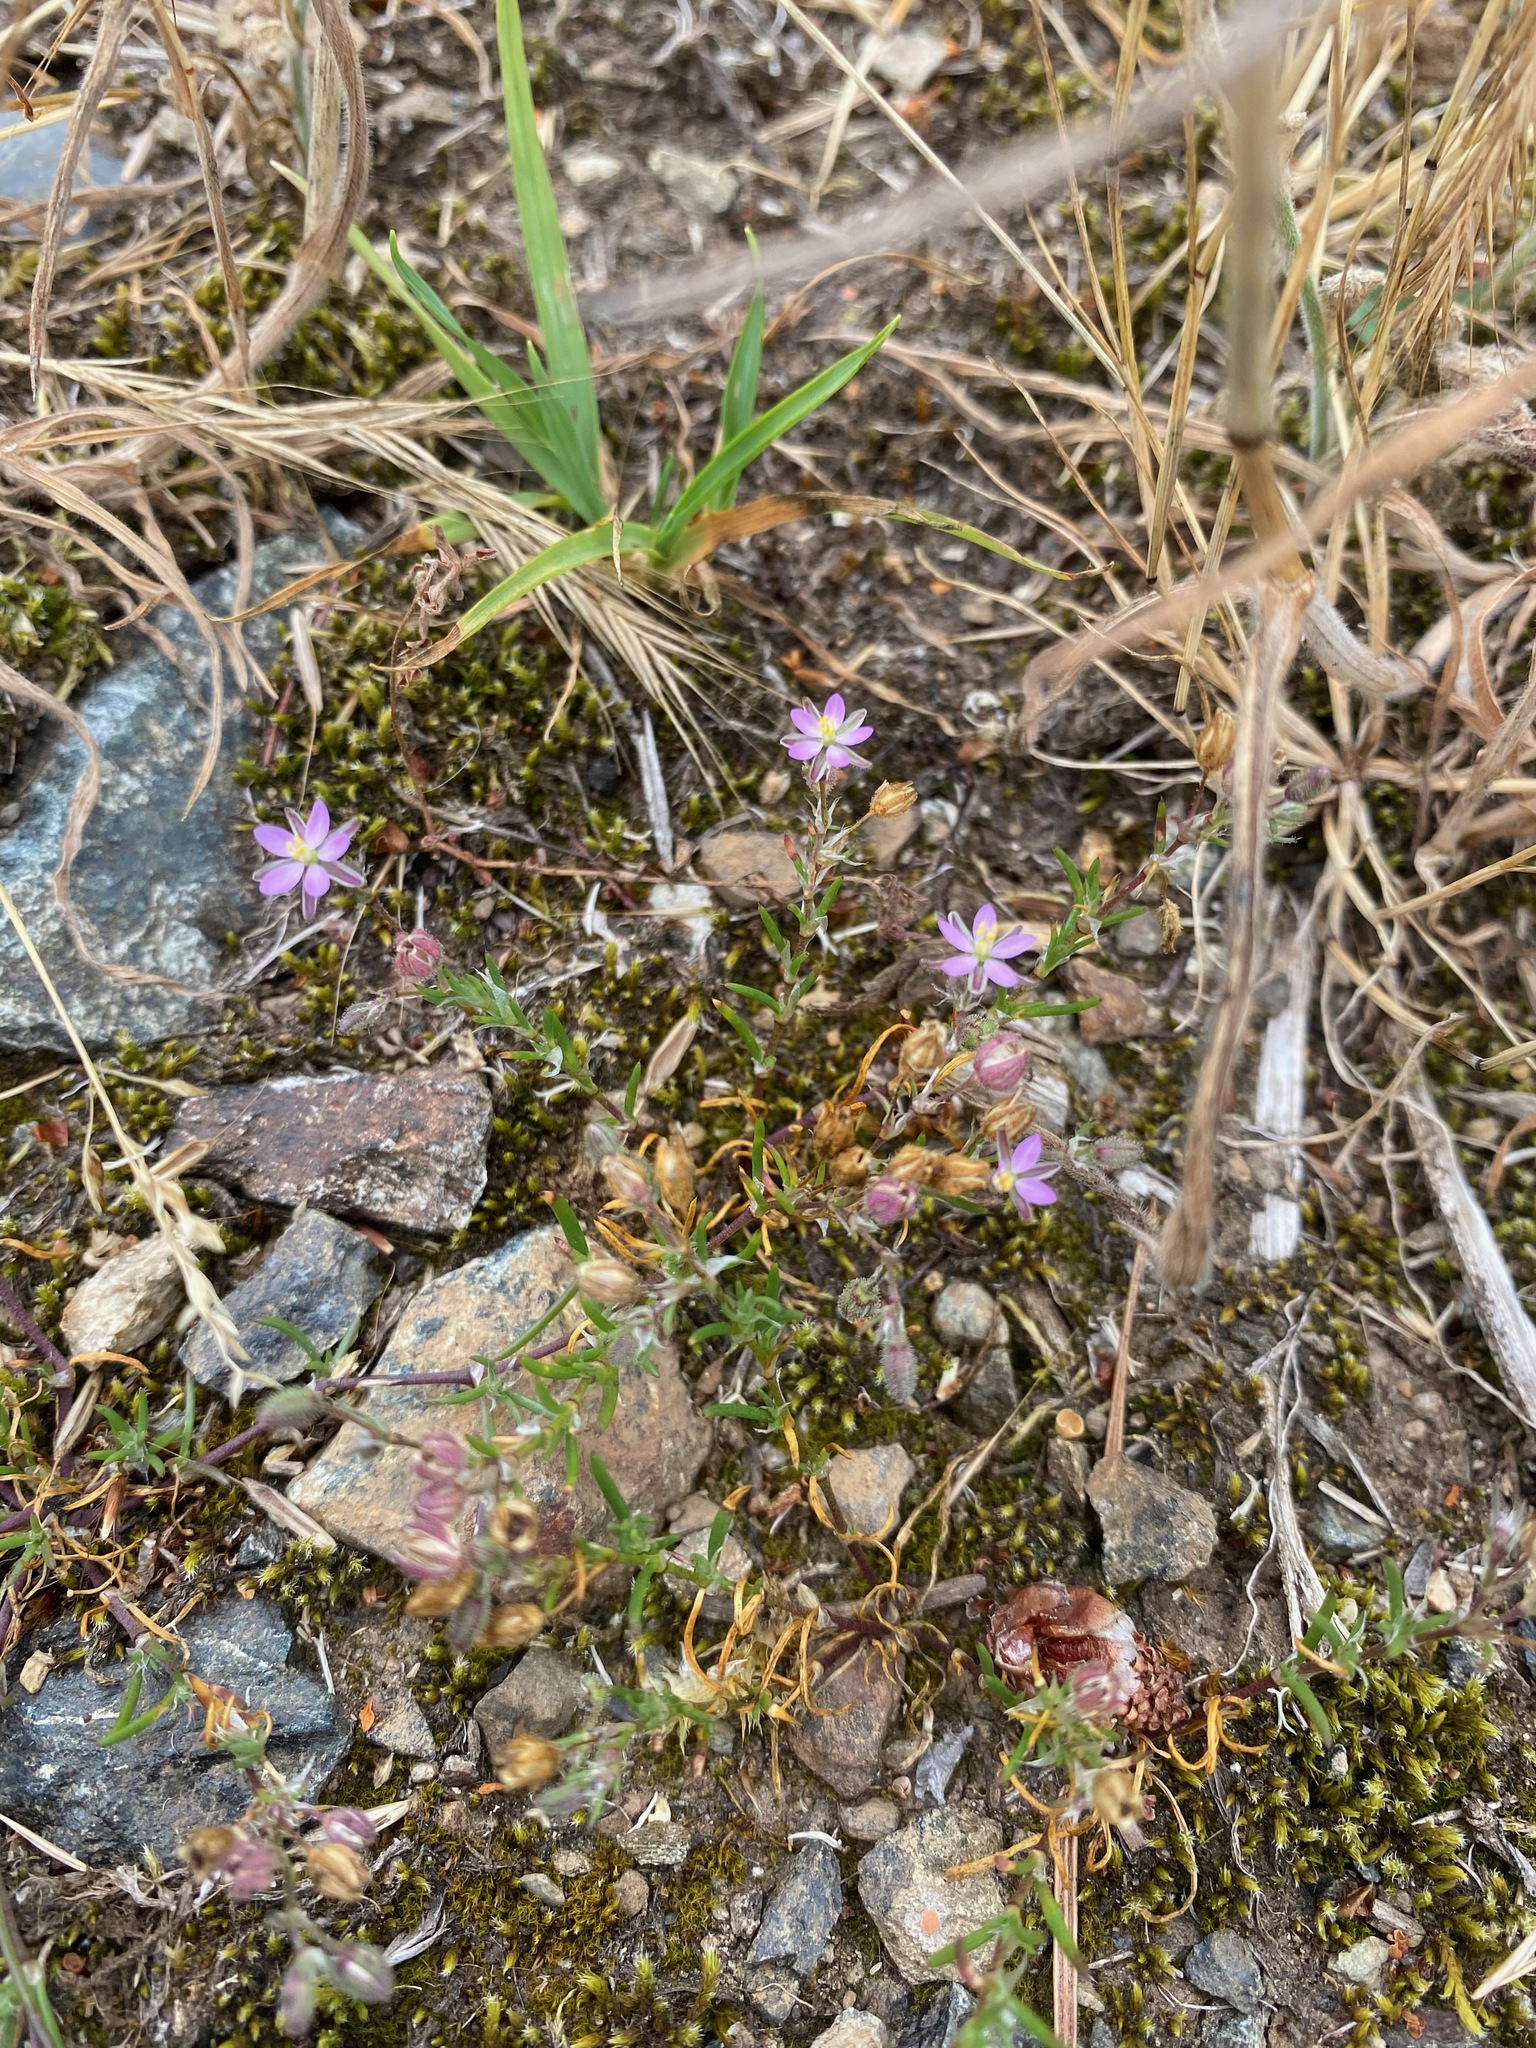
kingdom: Plantae
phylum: Tracheophyta
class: Magnoliopsida
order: Caryophyllales
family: Caryophyllaceae
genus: Spergularia
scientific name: Spergularia rubra
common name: Red sand-spurrey
